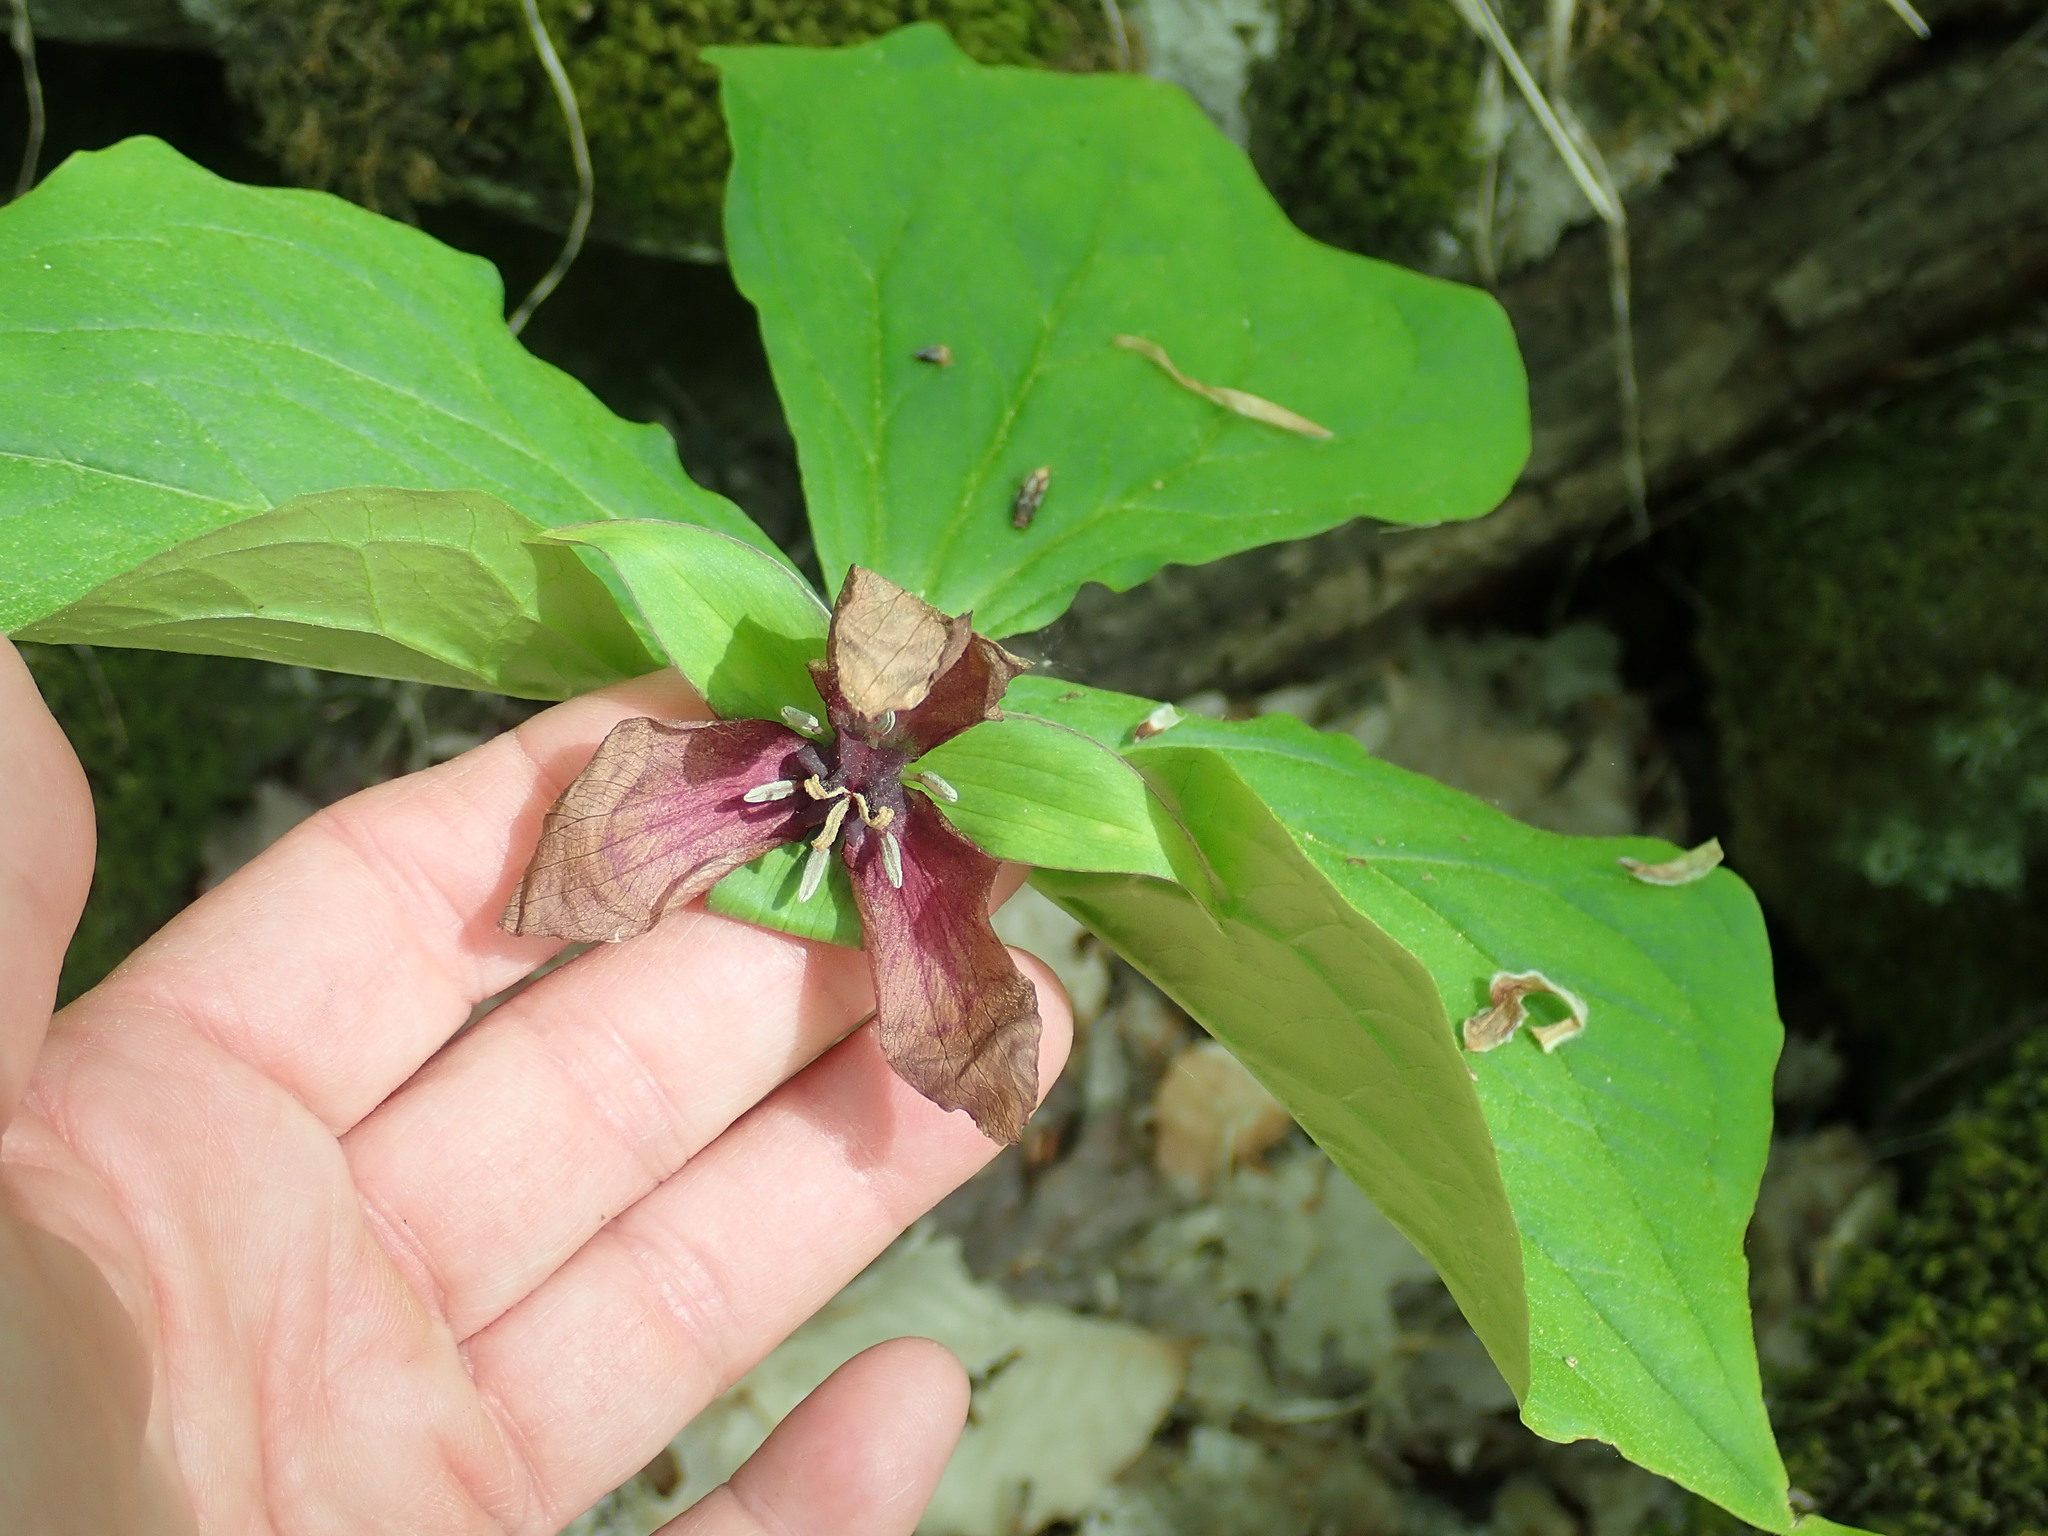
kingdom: Plantae
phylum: Tracheophyta
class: Liliopsida
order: Liliales
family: Melanthiaceae
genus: Trillium
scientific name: Trillium erectum
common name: Purple trillium
